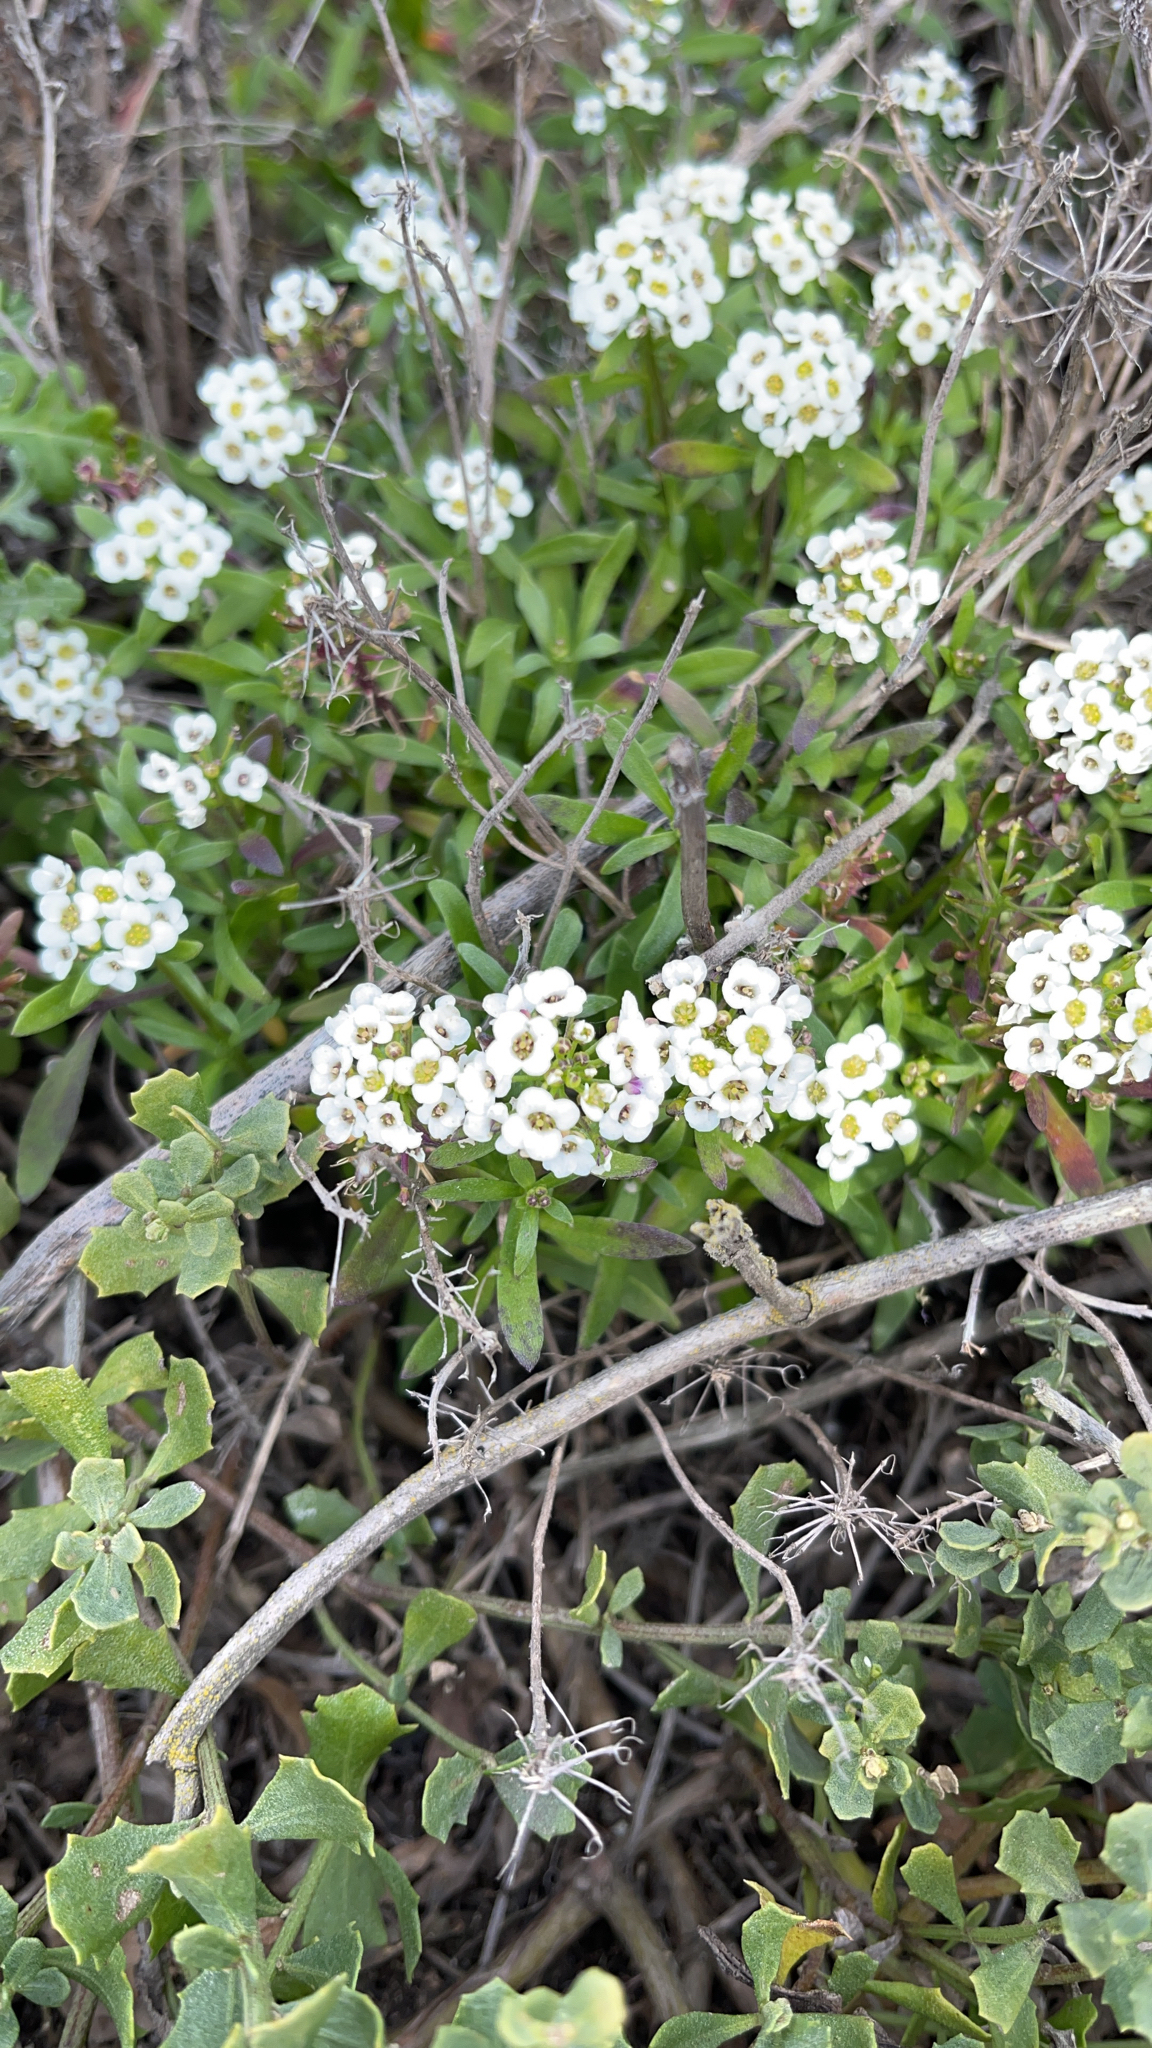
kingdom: Plantae
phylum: Tracheophyta
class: Magnoliopsida
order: Brassicales
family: Brassicaceae
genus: Lobularia
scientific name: Lobularia maritima
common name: Sweet alison
